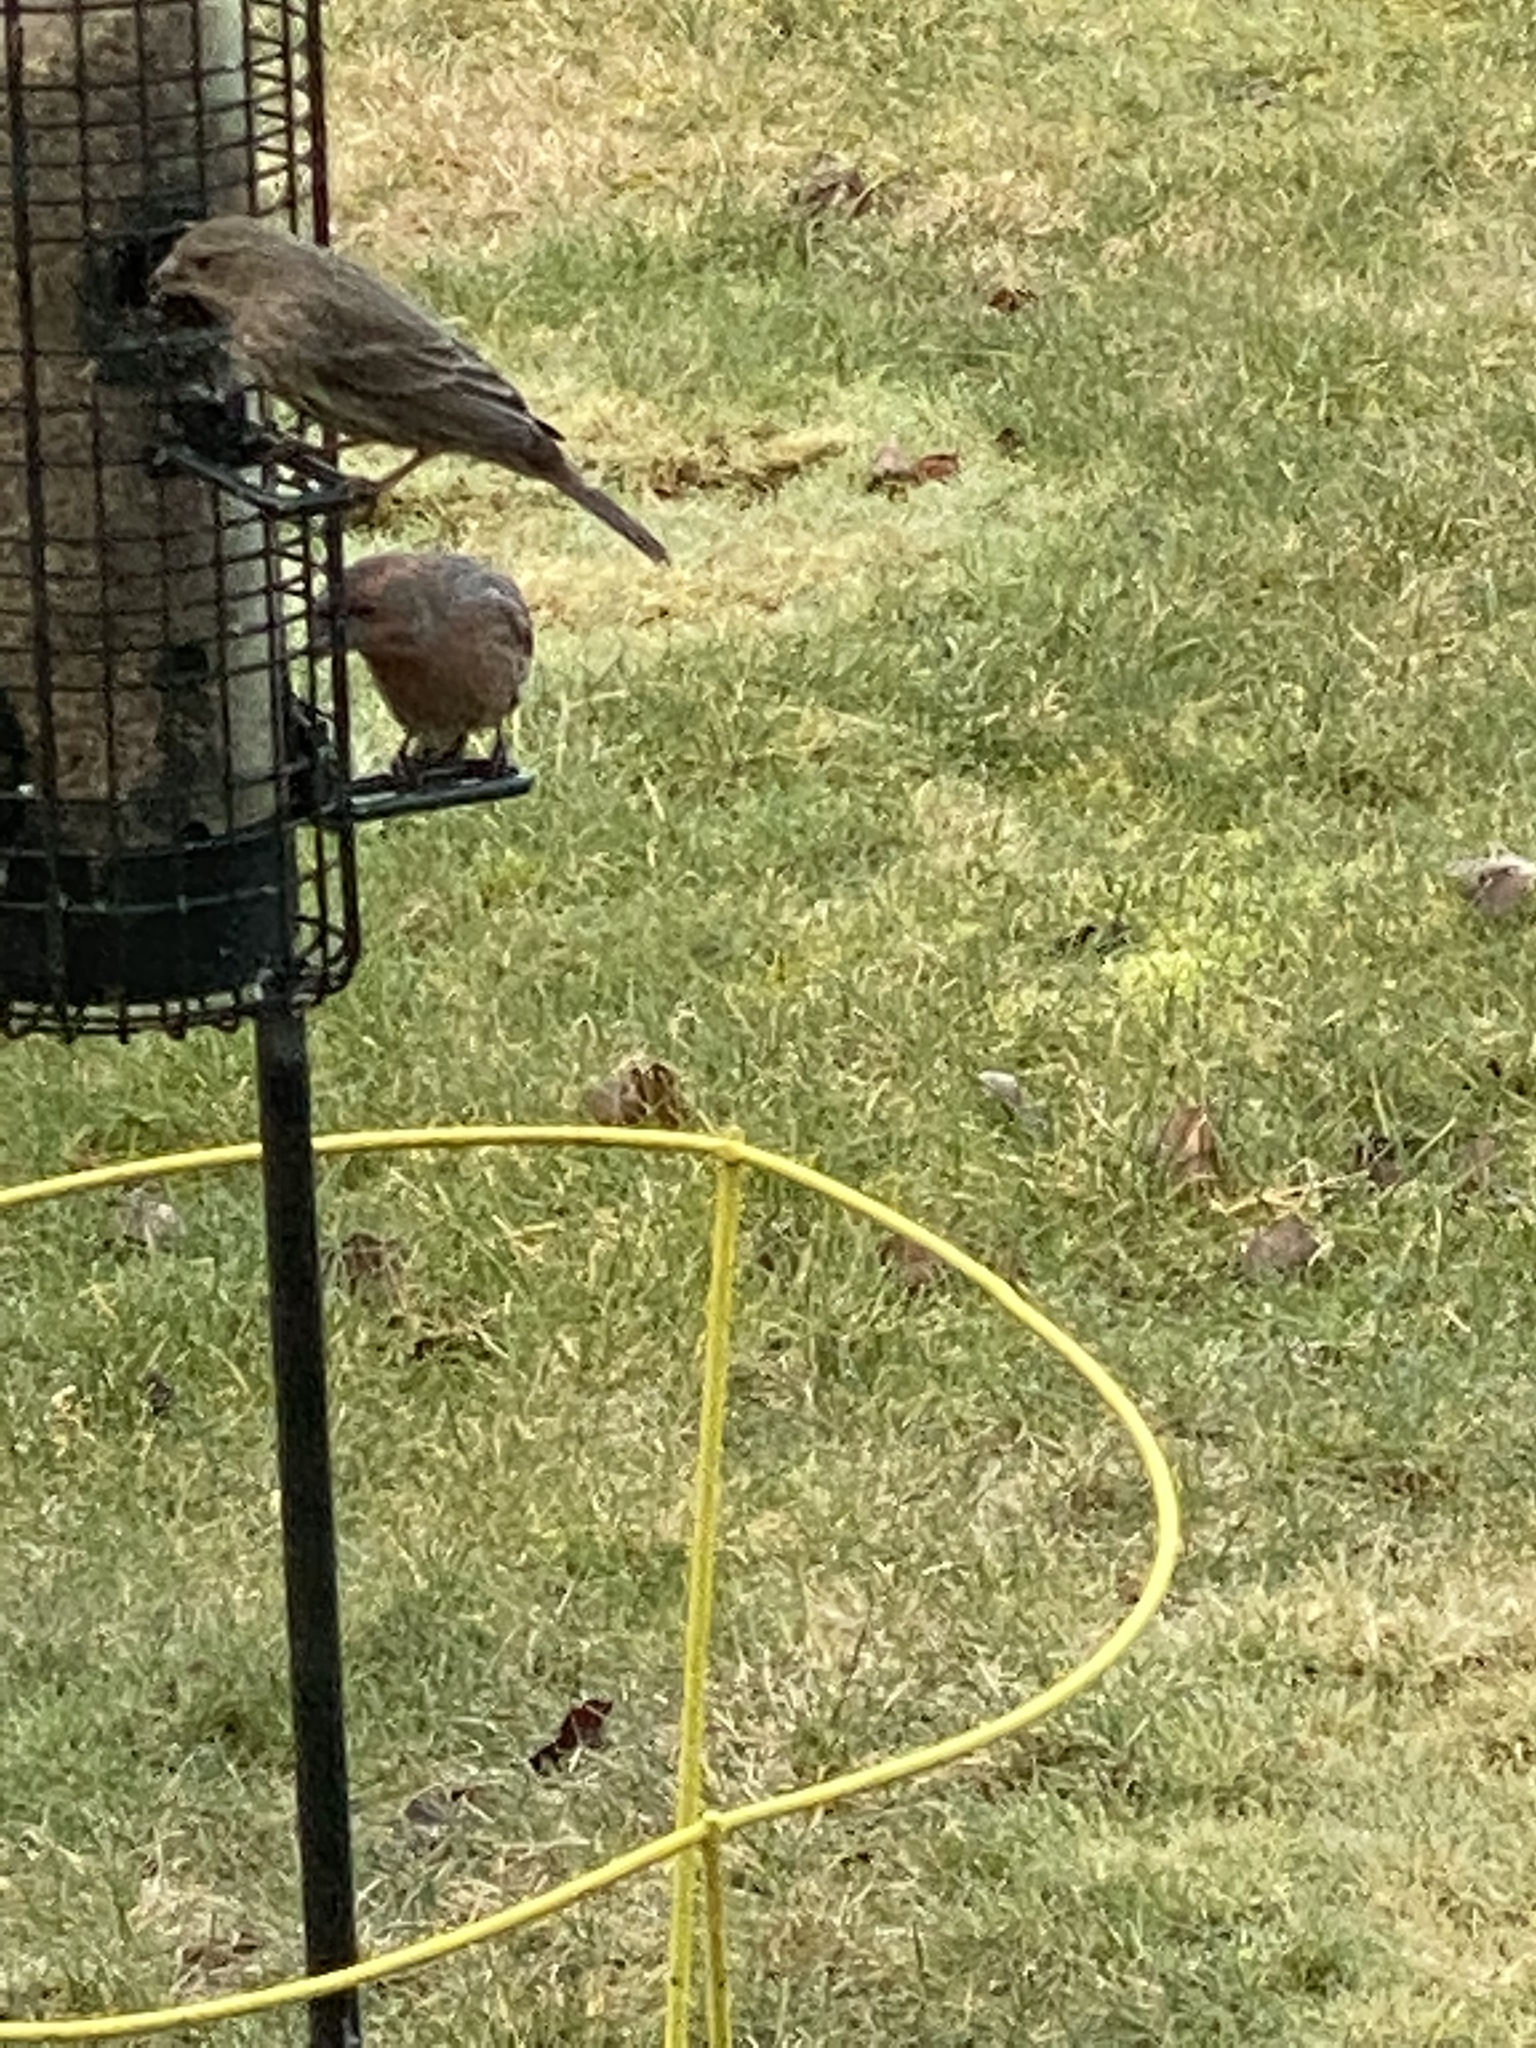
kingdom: Animalia
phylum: Chordata
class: Aves
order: Passeriformes
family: Fringillidae
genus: Haemorhous
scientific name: Haemorhous mexicanus
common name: House finch
